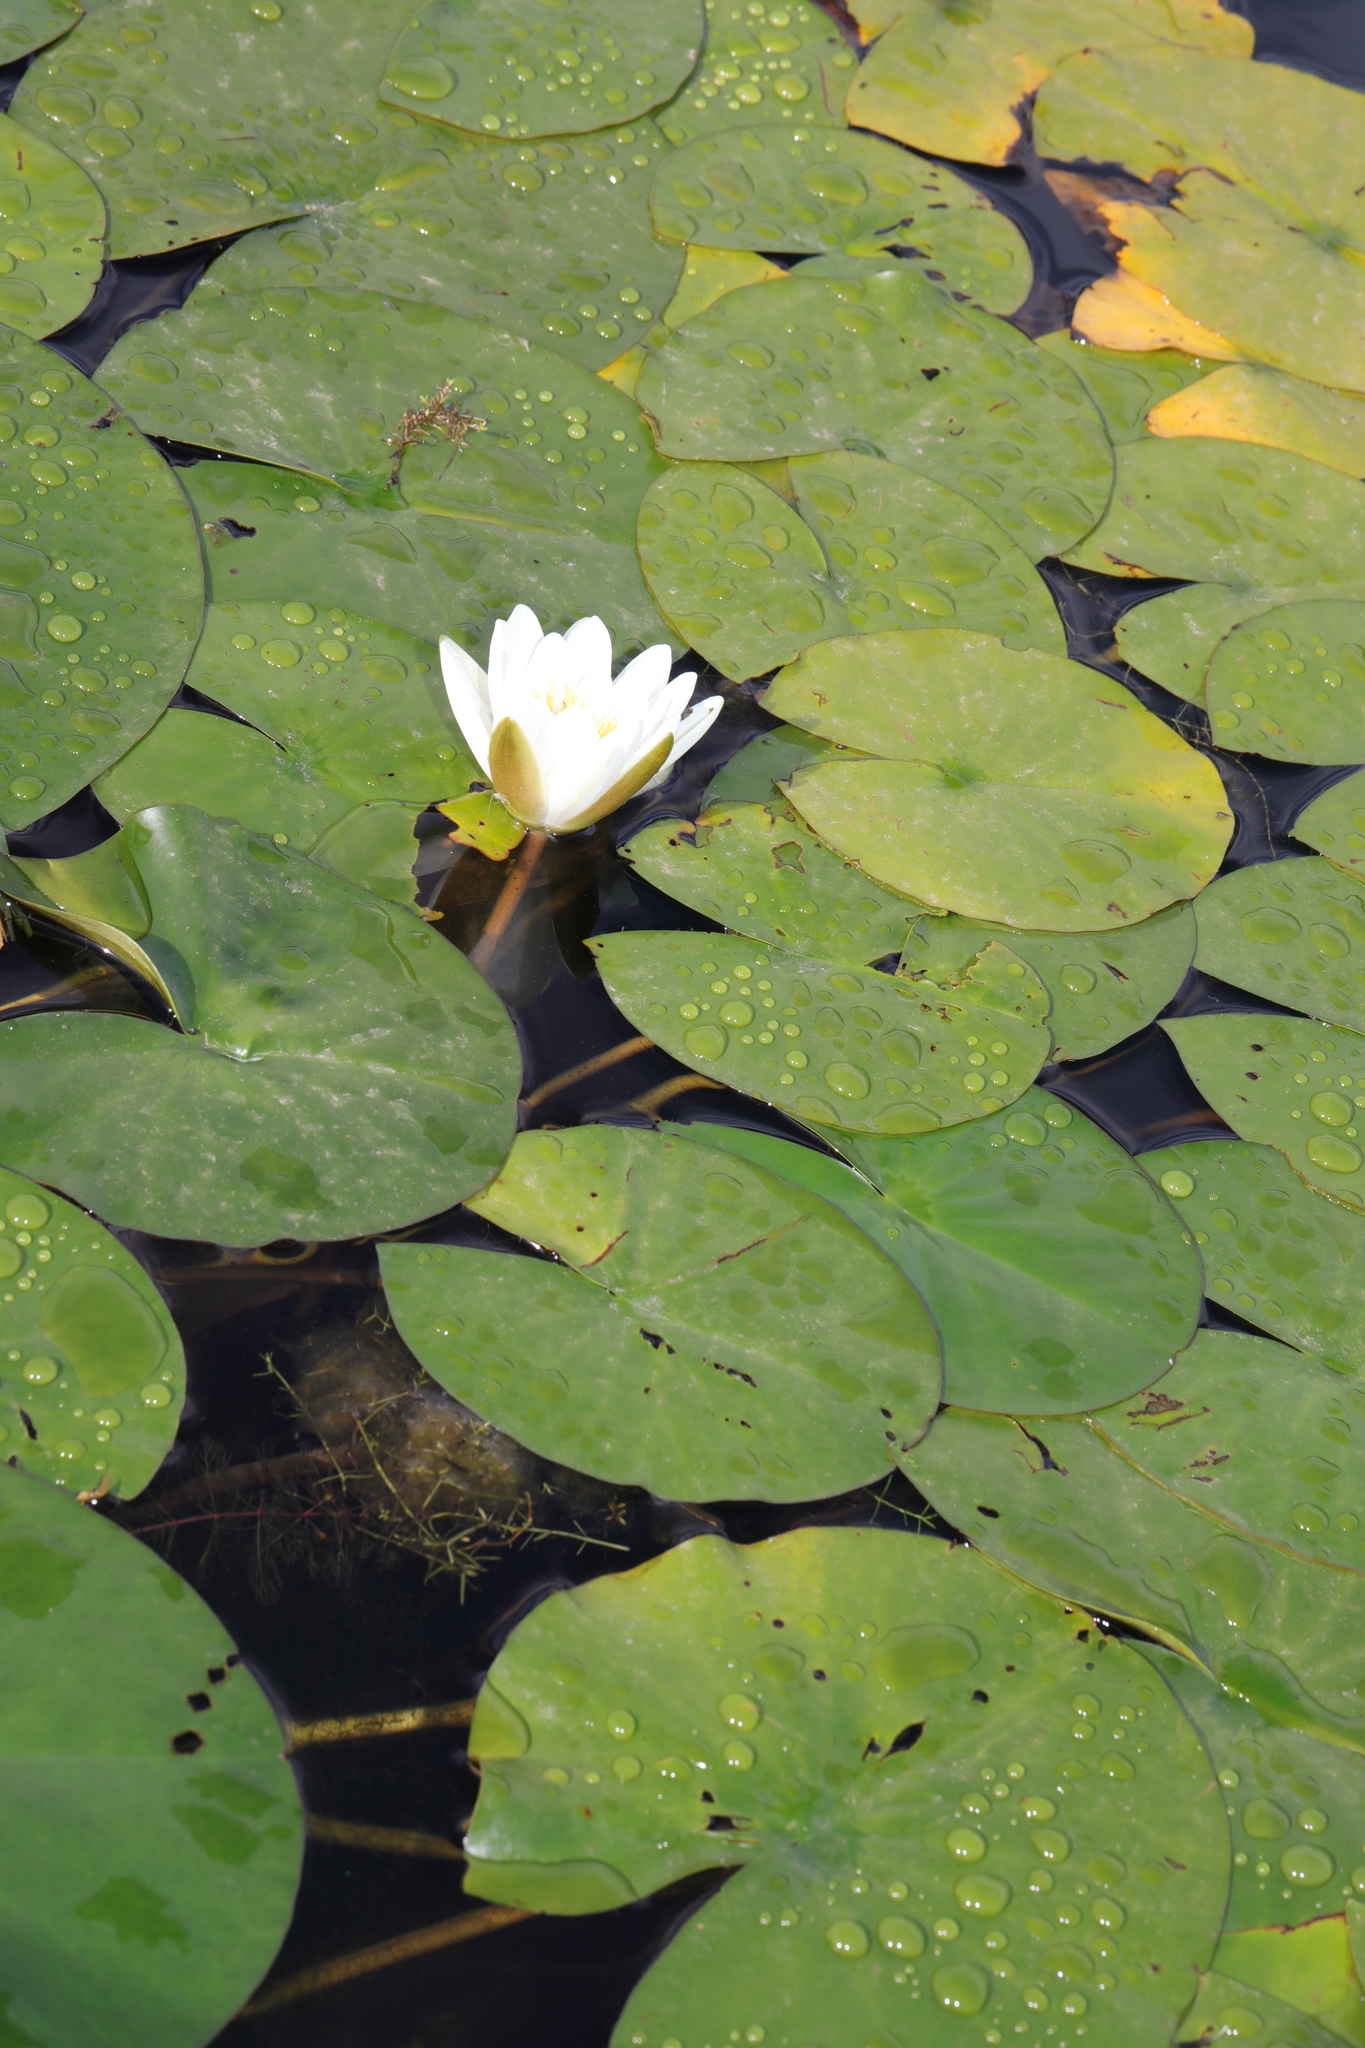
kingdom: Plantae
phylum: Tracheophyta
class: Magnoliopsida
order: Nymphaeales
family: Nymphaeaceae
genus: Nymphaea
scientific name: Nymphaea alba
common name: White water-lily
